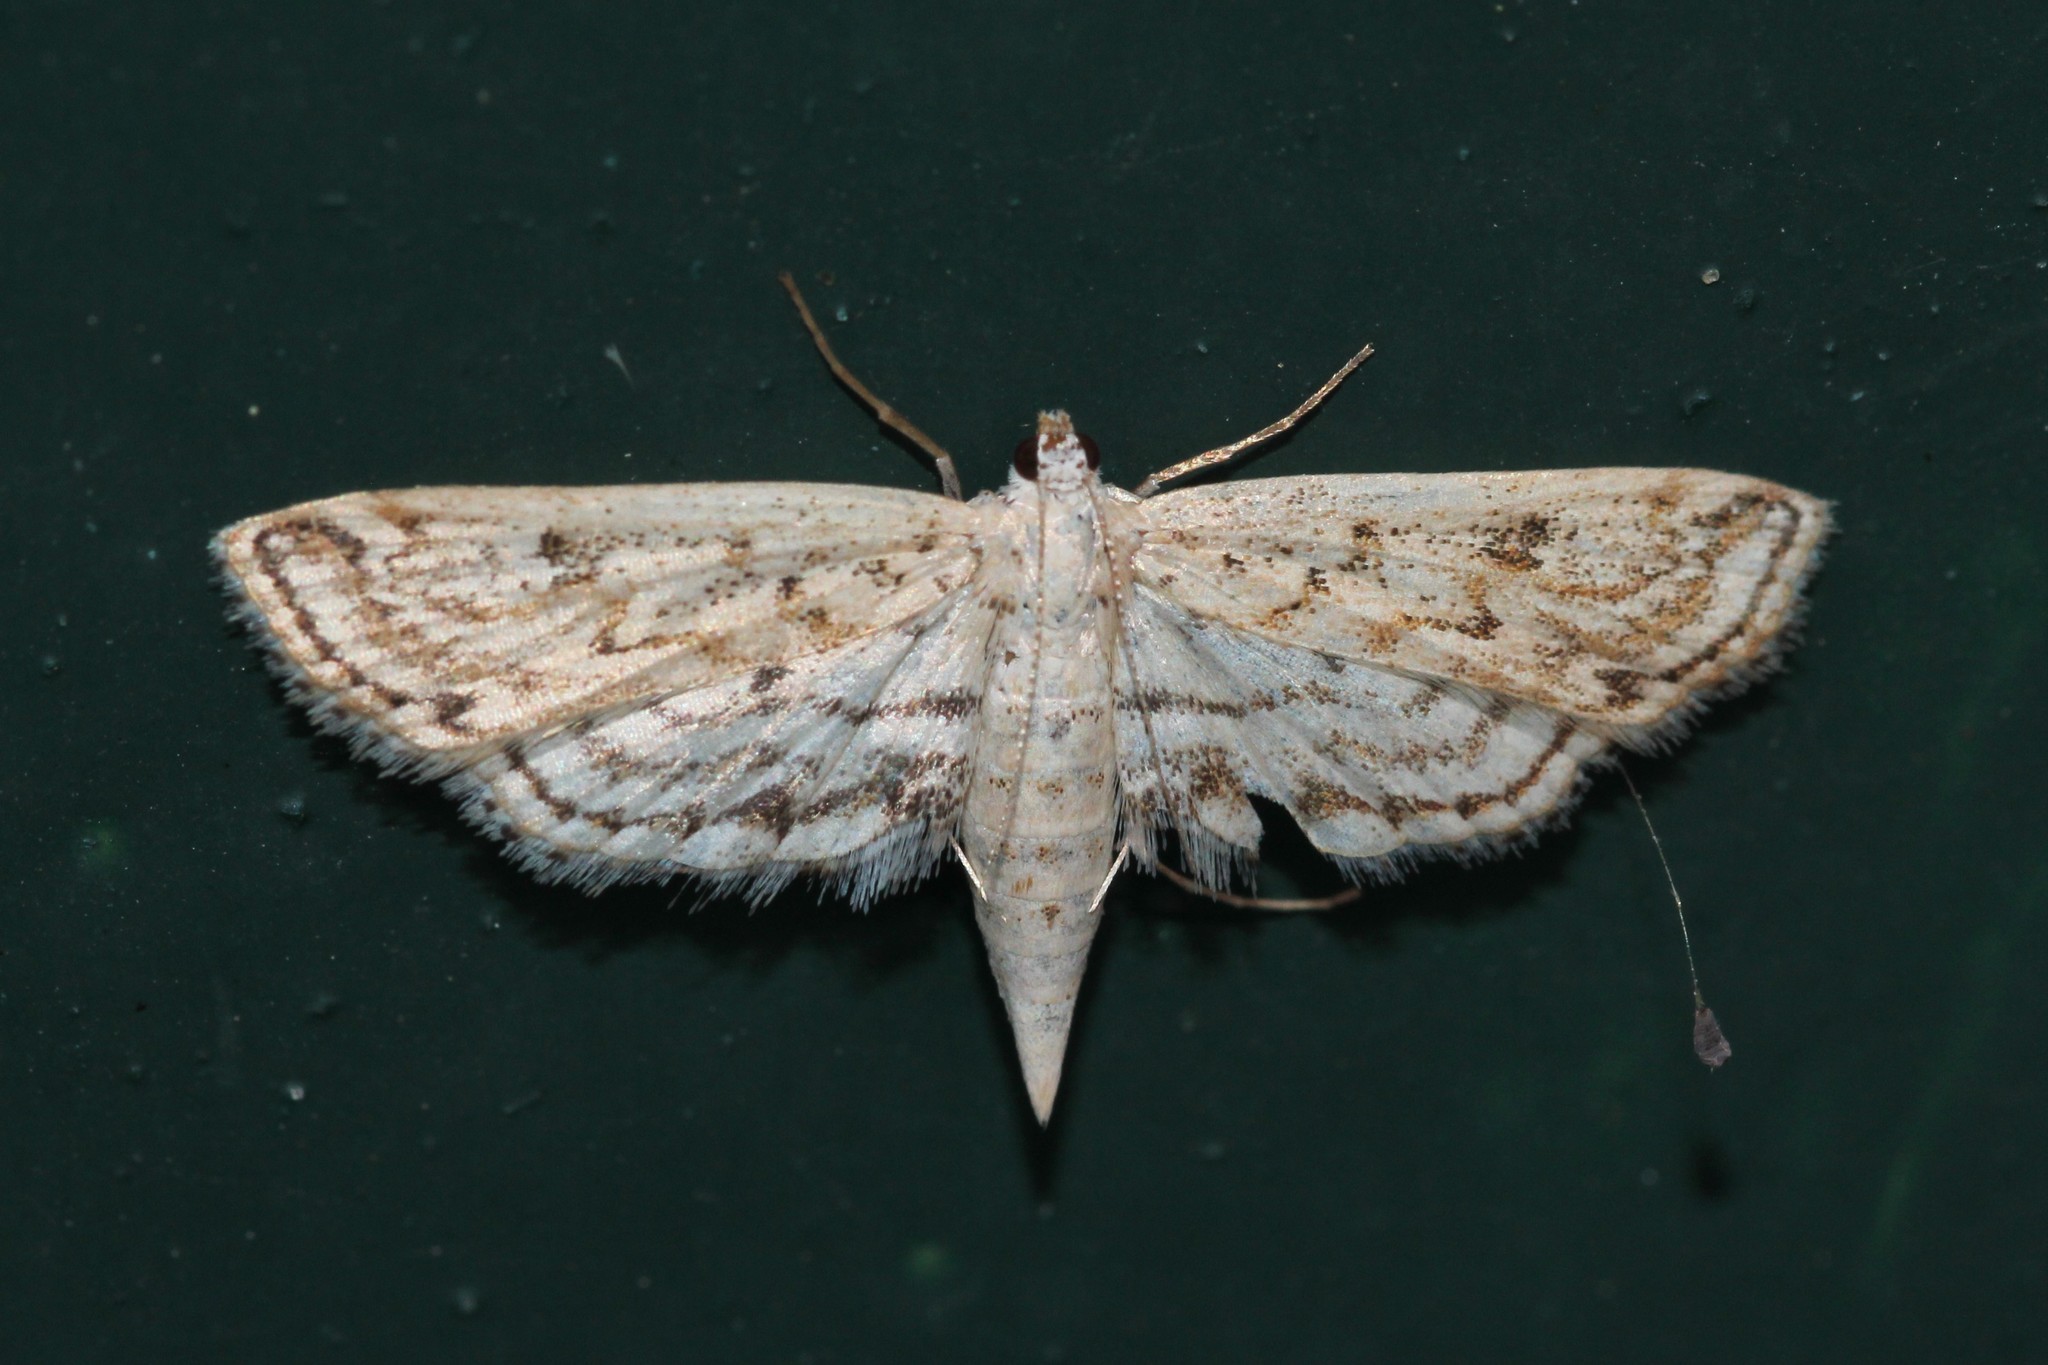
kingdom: Animalia
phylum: Arthropoda
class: Insecta
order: Lepidoptera
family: Crambidae
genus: Parapoynx
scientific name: Parapoynx allionealis
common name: Bladderwort casemaker
